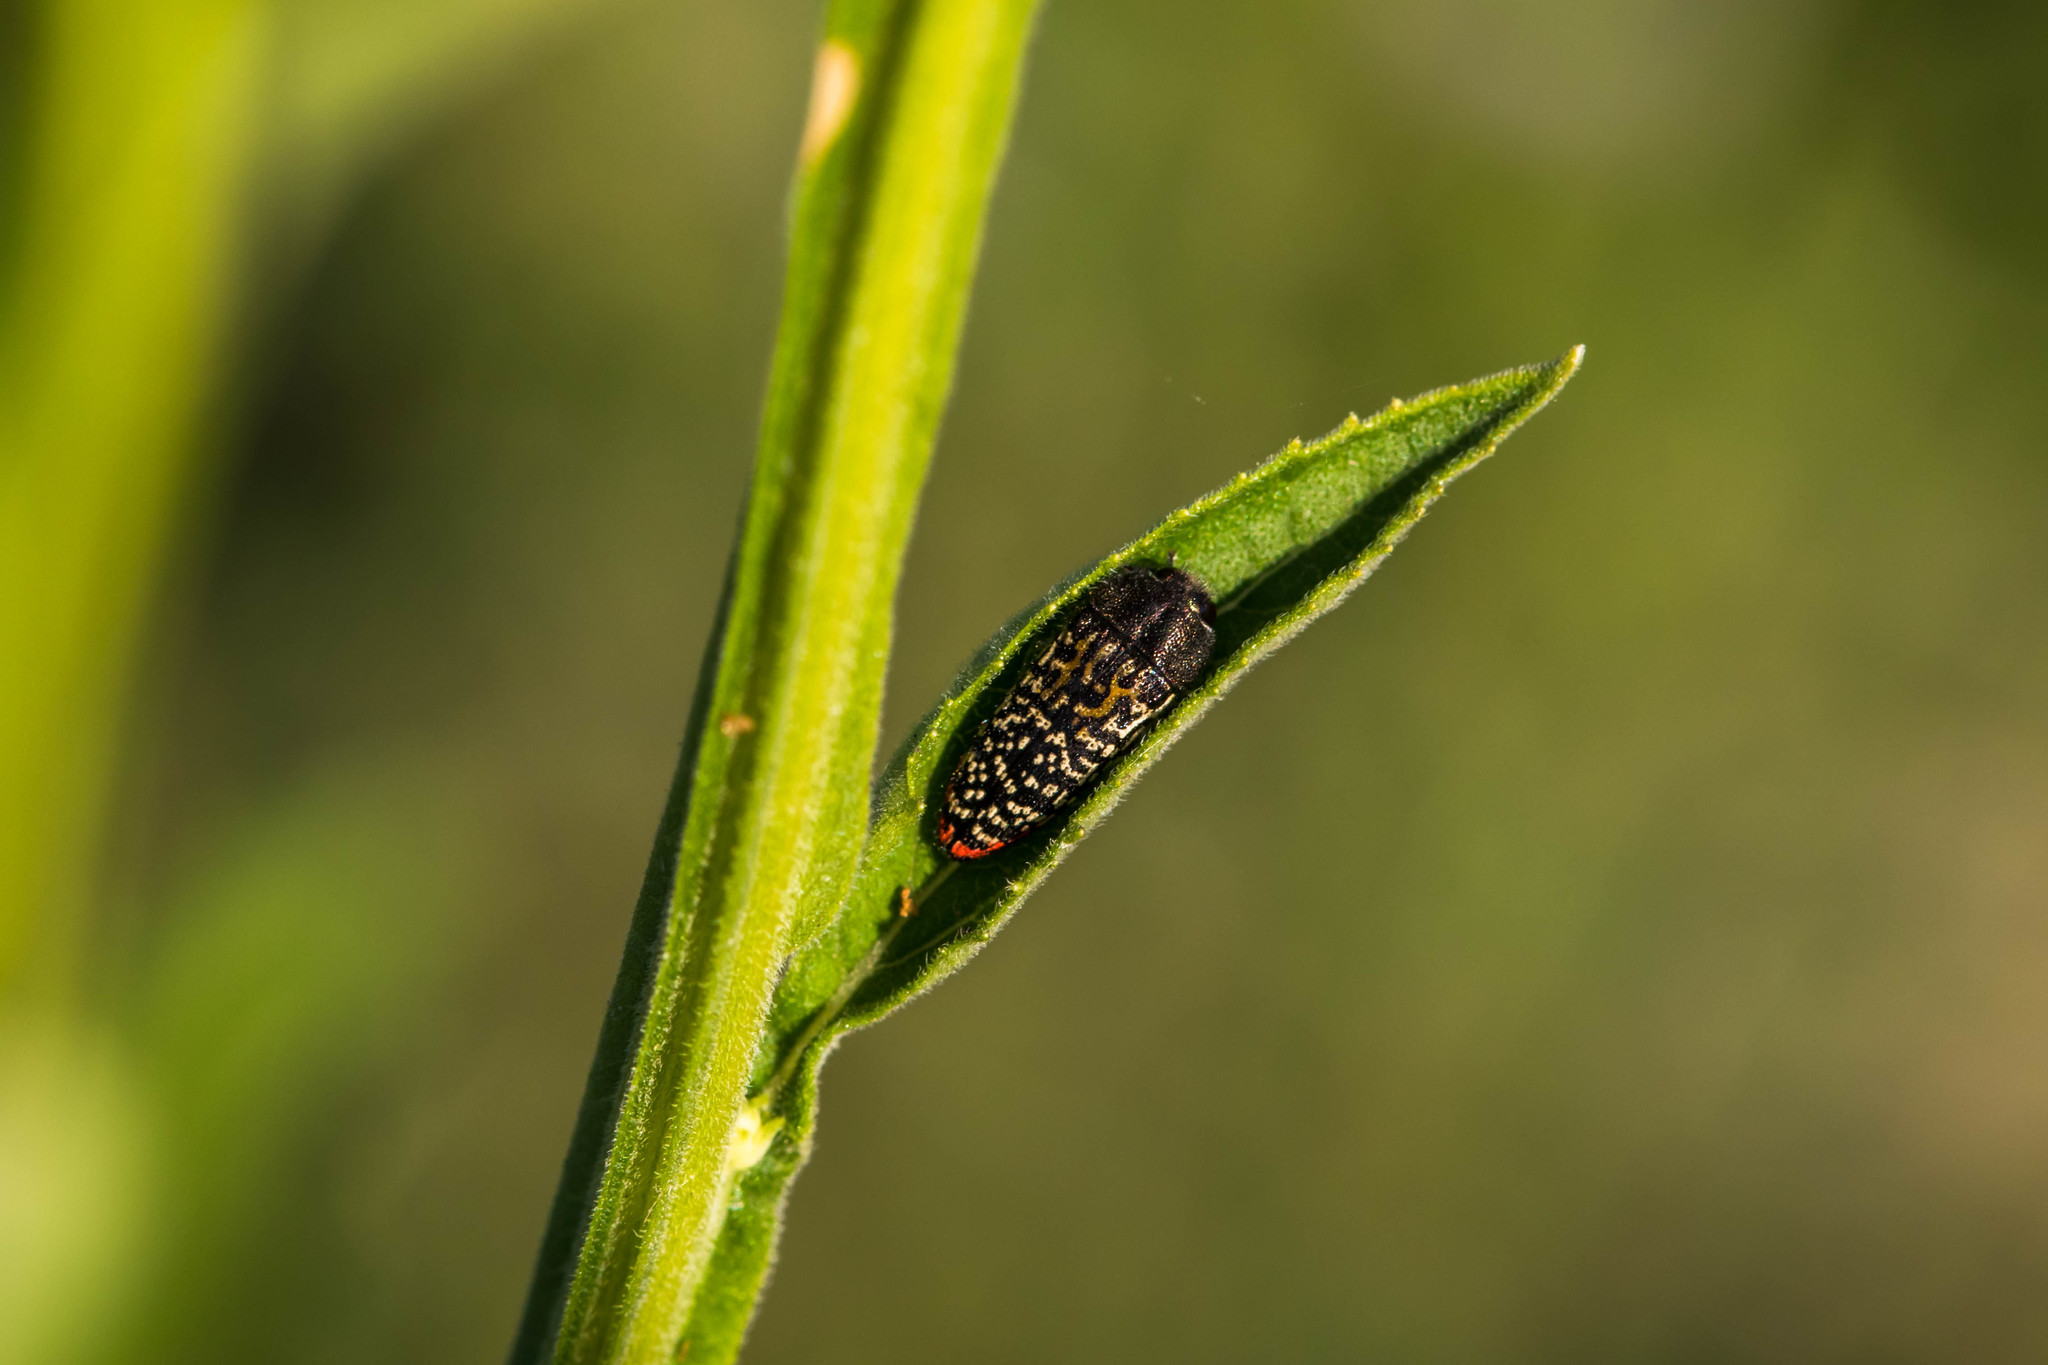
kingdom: Animalia
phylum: Arthropoda
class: Insecta
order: Coleoptera
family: Buprestidae
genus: Acmaeodera
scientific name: Acmaeodera haemorrhoa
